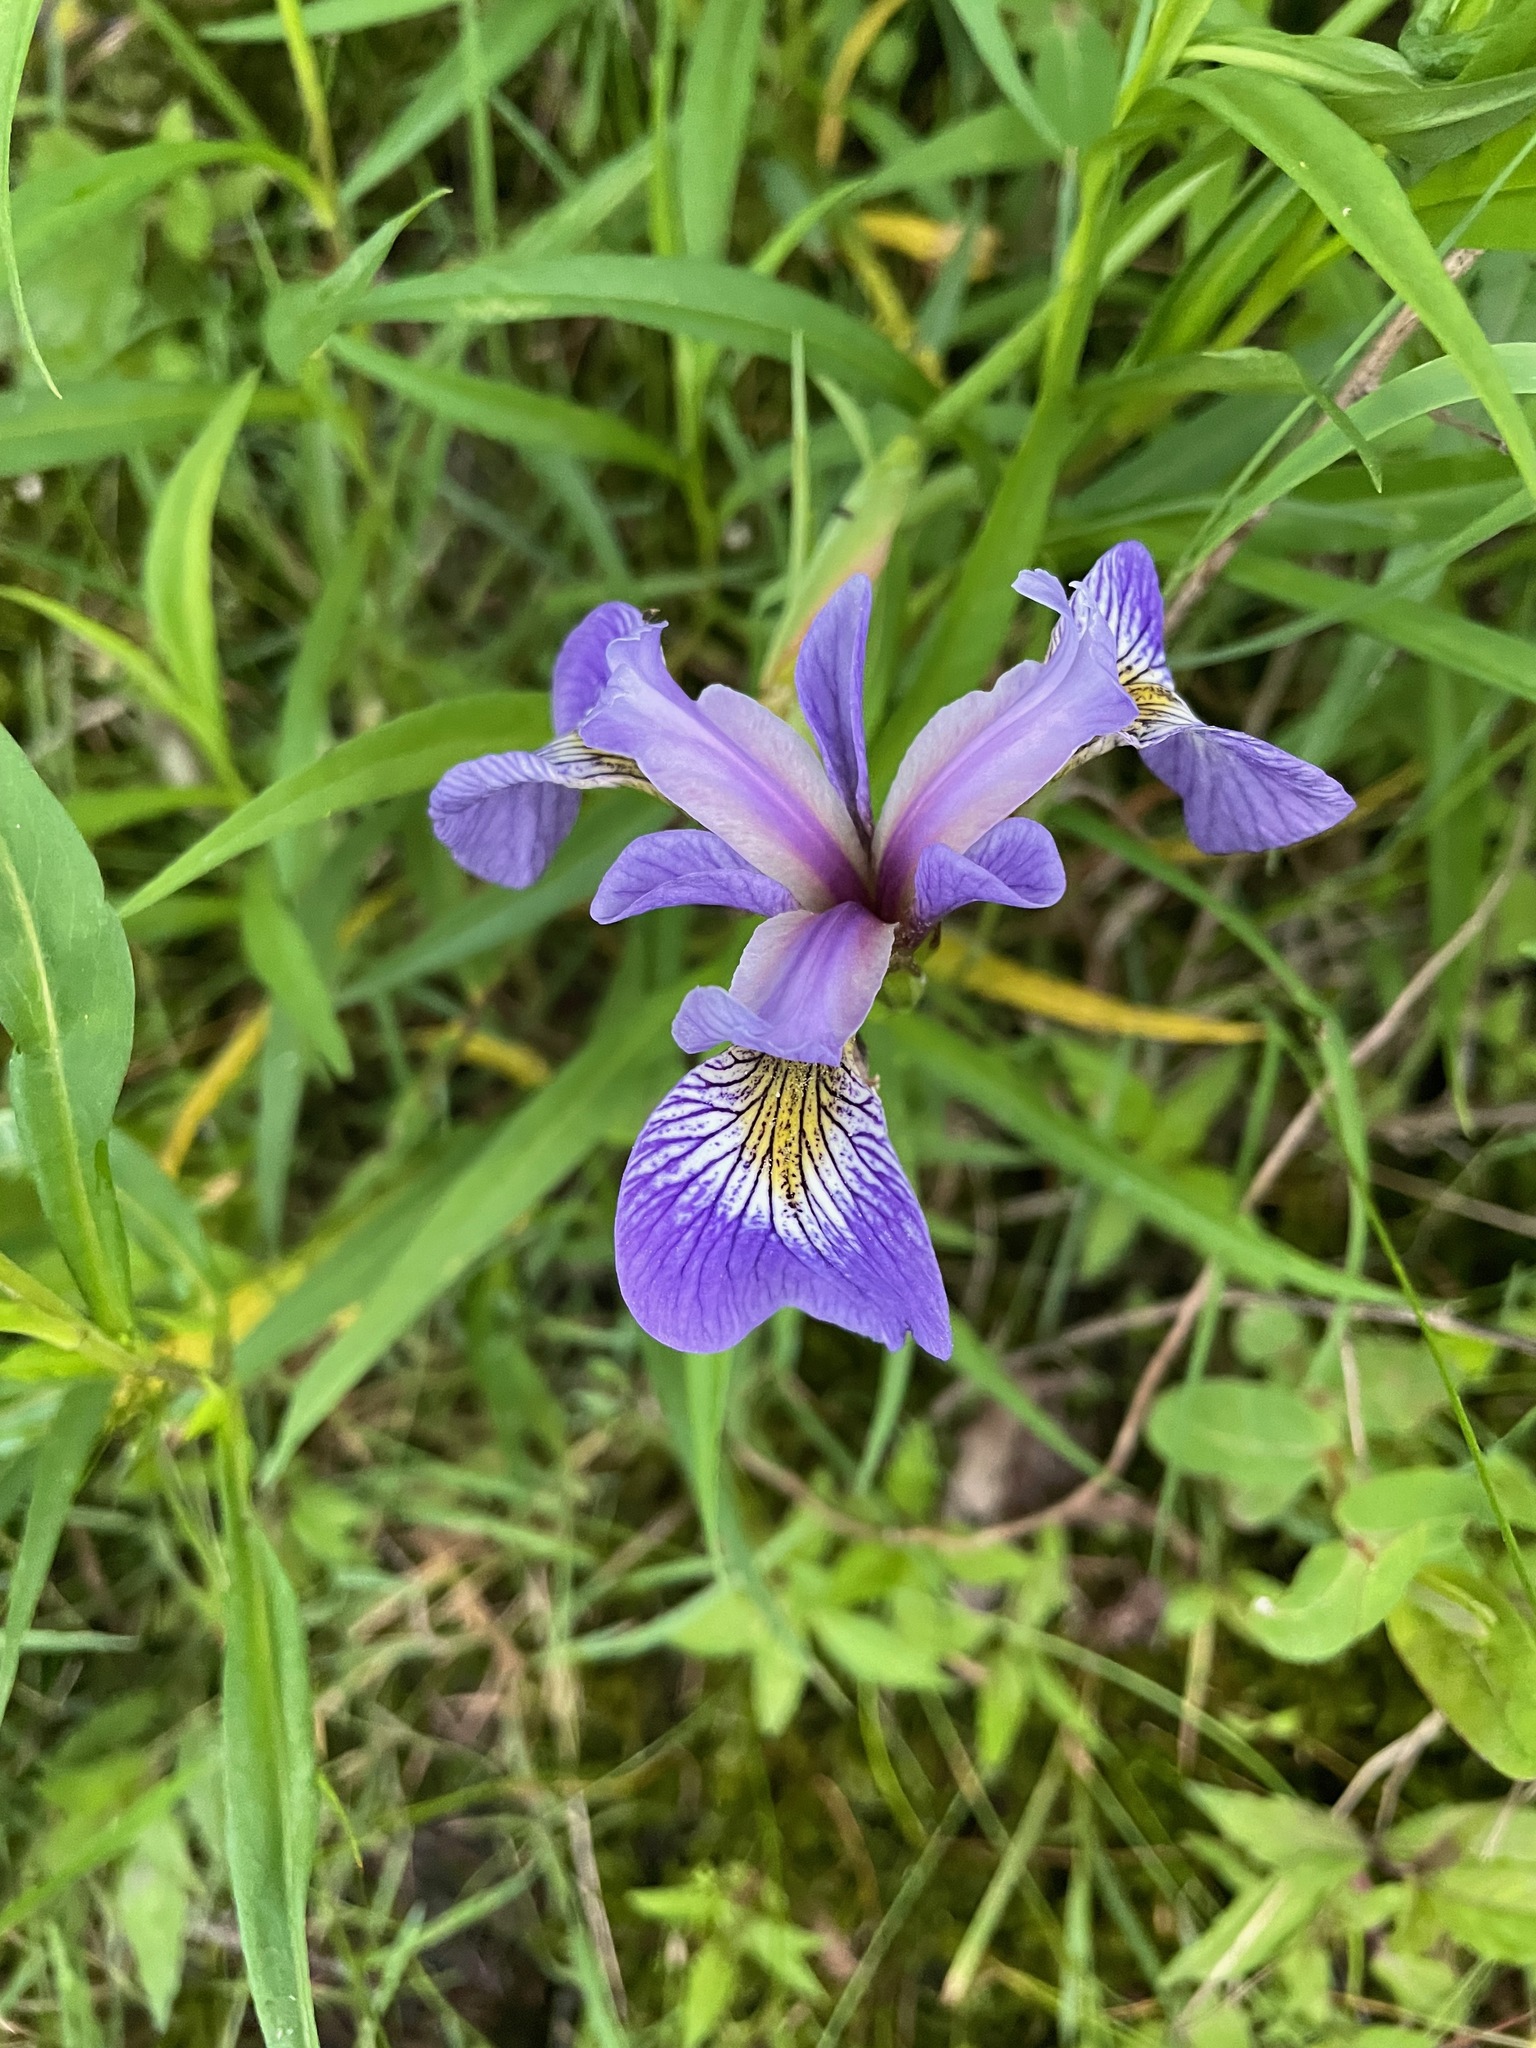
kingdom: Plantae
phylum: Tracheophyta
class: Liliopsida
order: Asparagales
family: Iridaceae
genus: Iris
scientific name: Iris versicolor
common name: Purple iris
